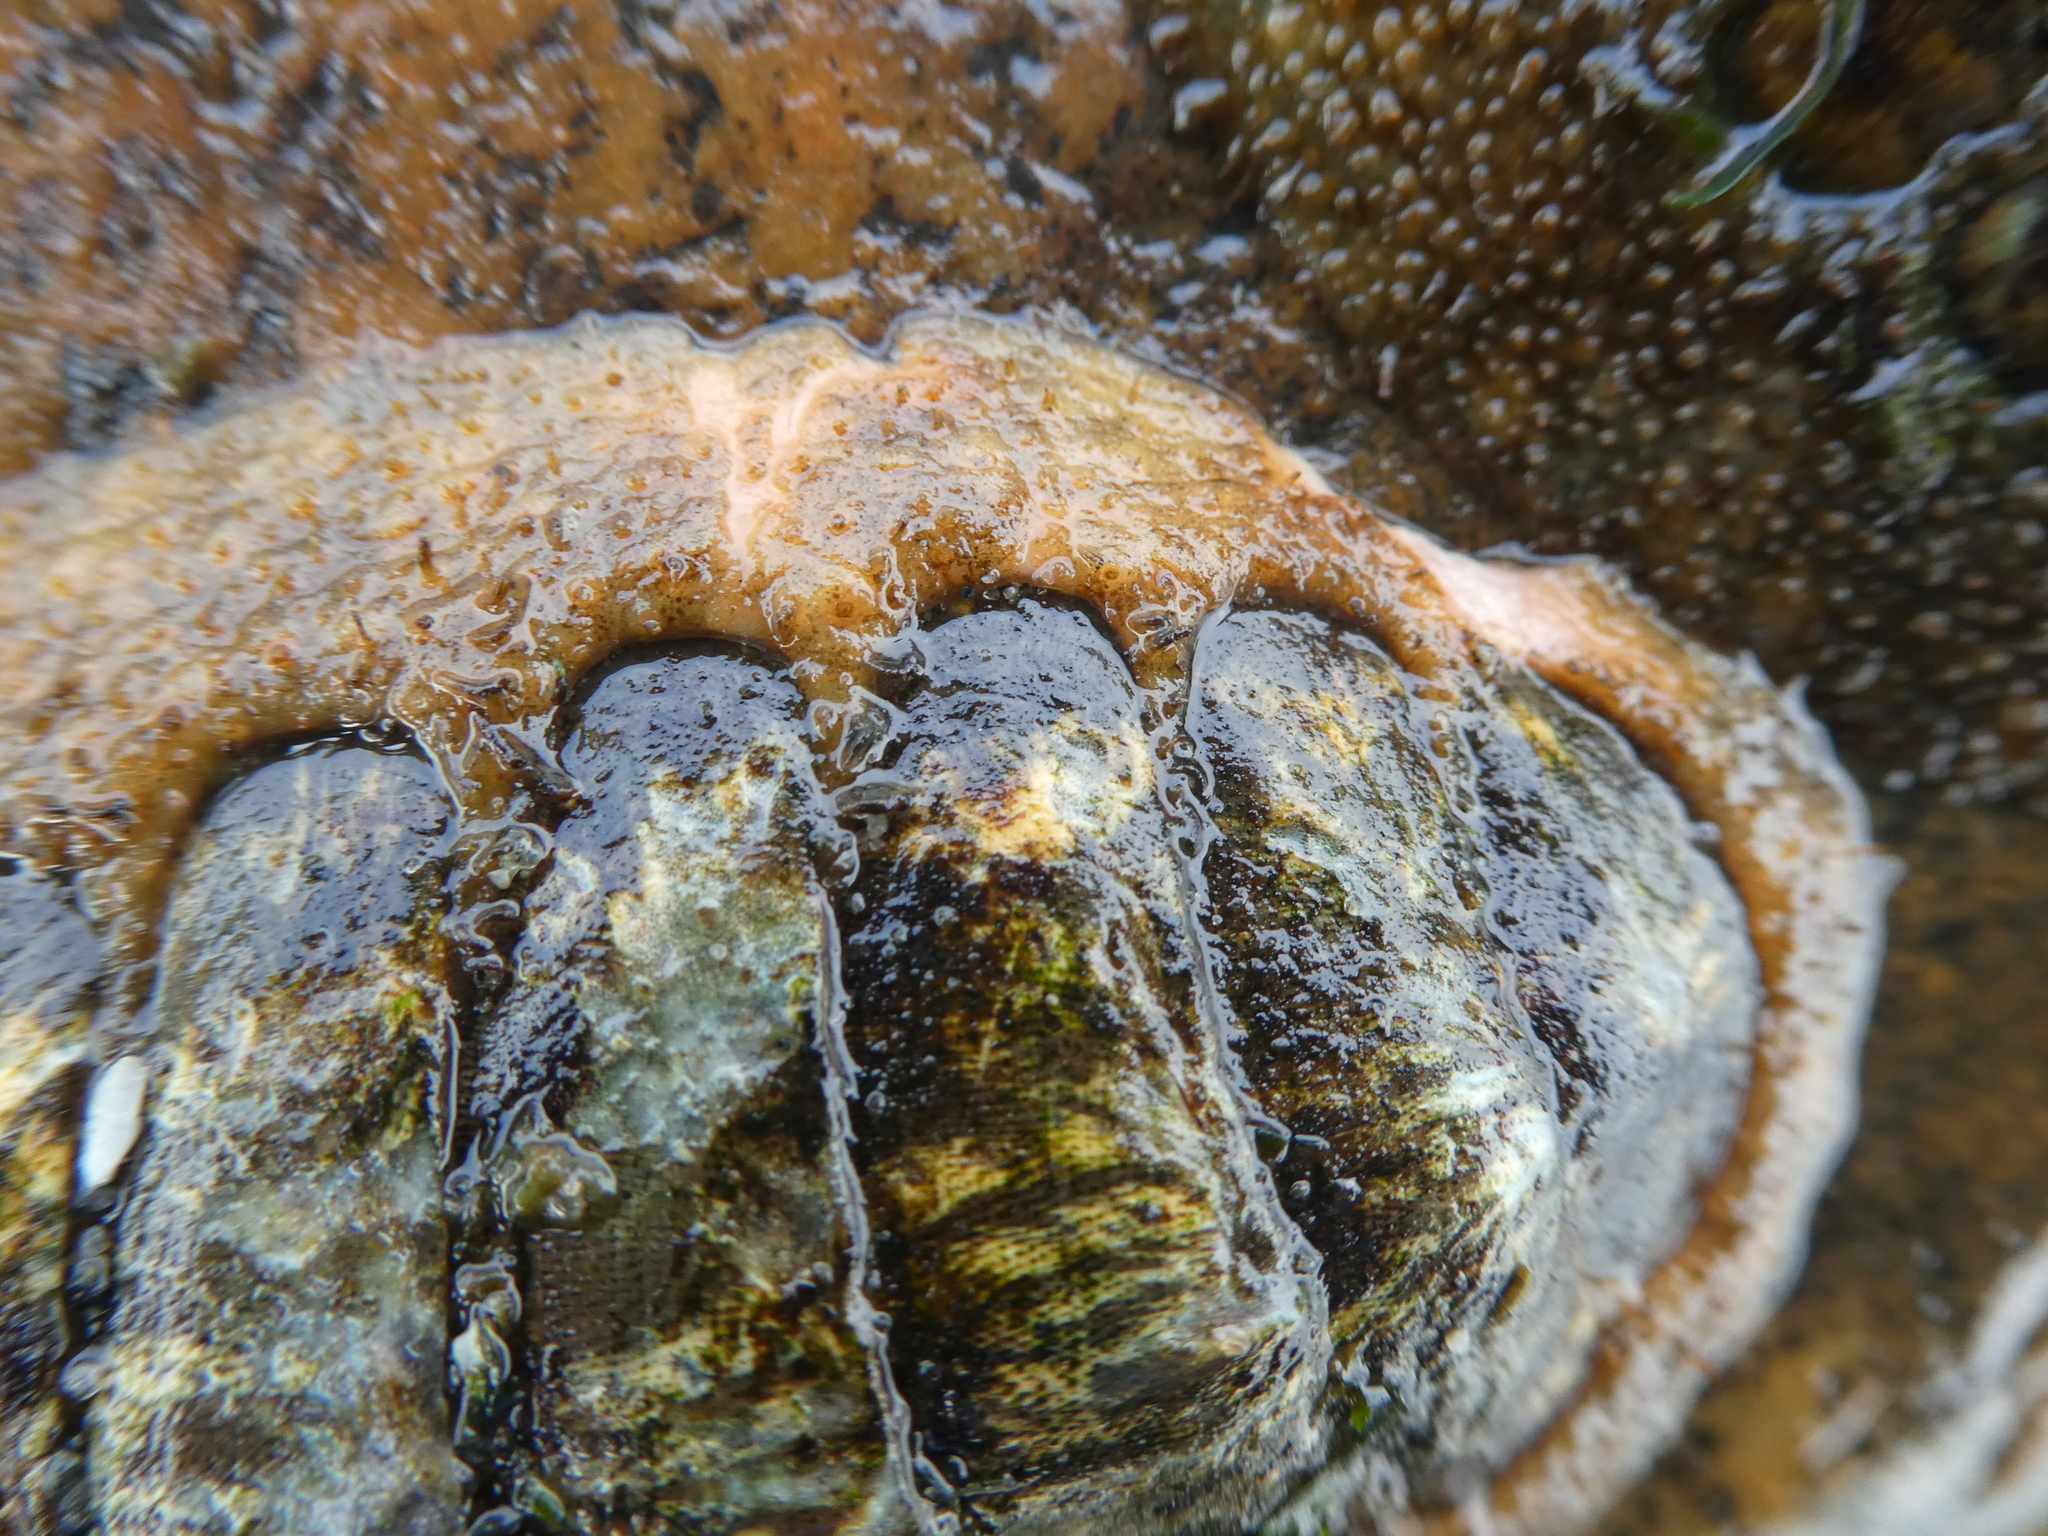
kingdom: Animalia
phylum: Mollusca
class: Polyplacophora
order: Chitonida
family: Mopaliidae
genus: Mopalia
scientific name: Mopalia lignosa
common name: Woody chiton
